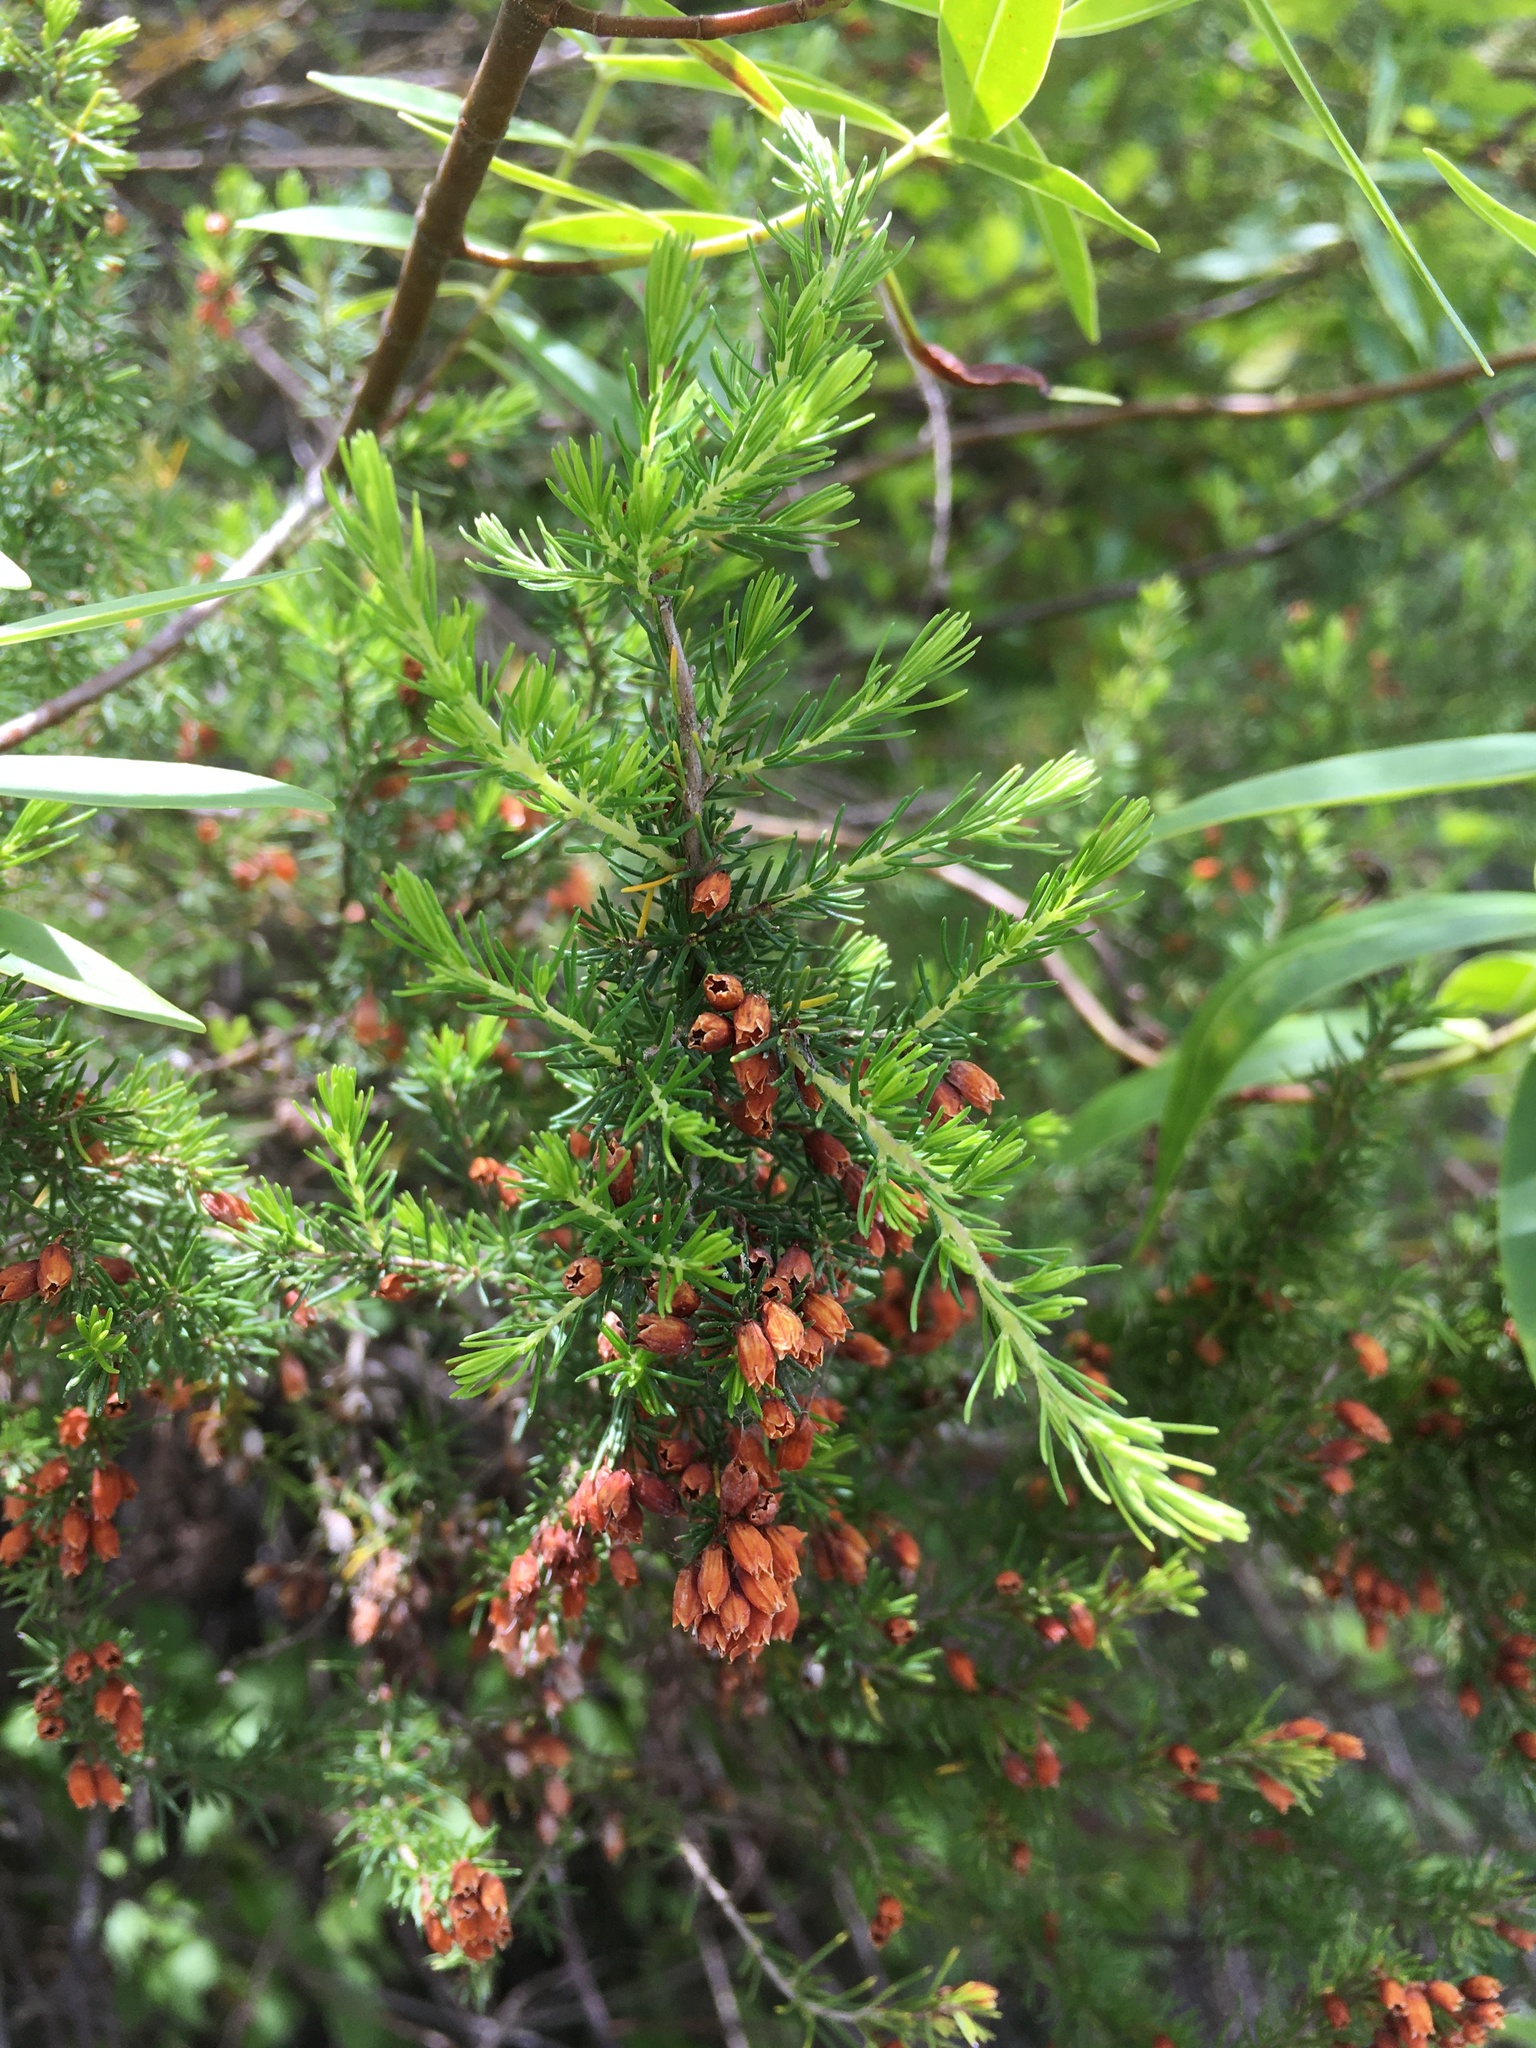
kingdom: Plantae
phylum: Tracheophyta
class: Magnoliopsida
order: Ericales
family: Ericaceae
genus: Erica
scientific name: Erica lusitanica
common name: Spanish heath
